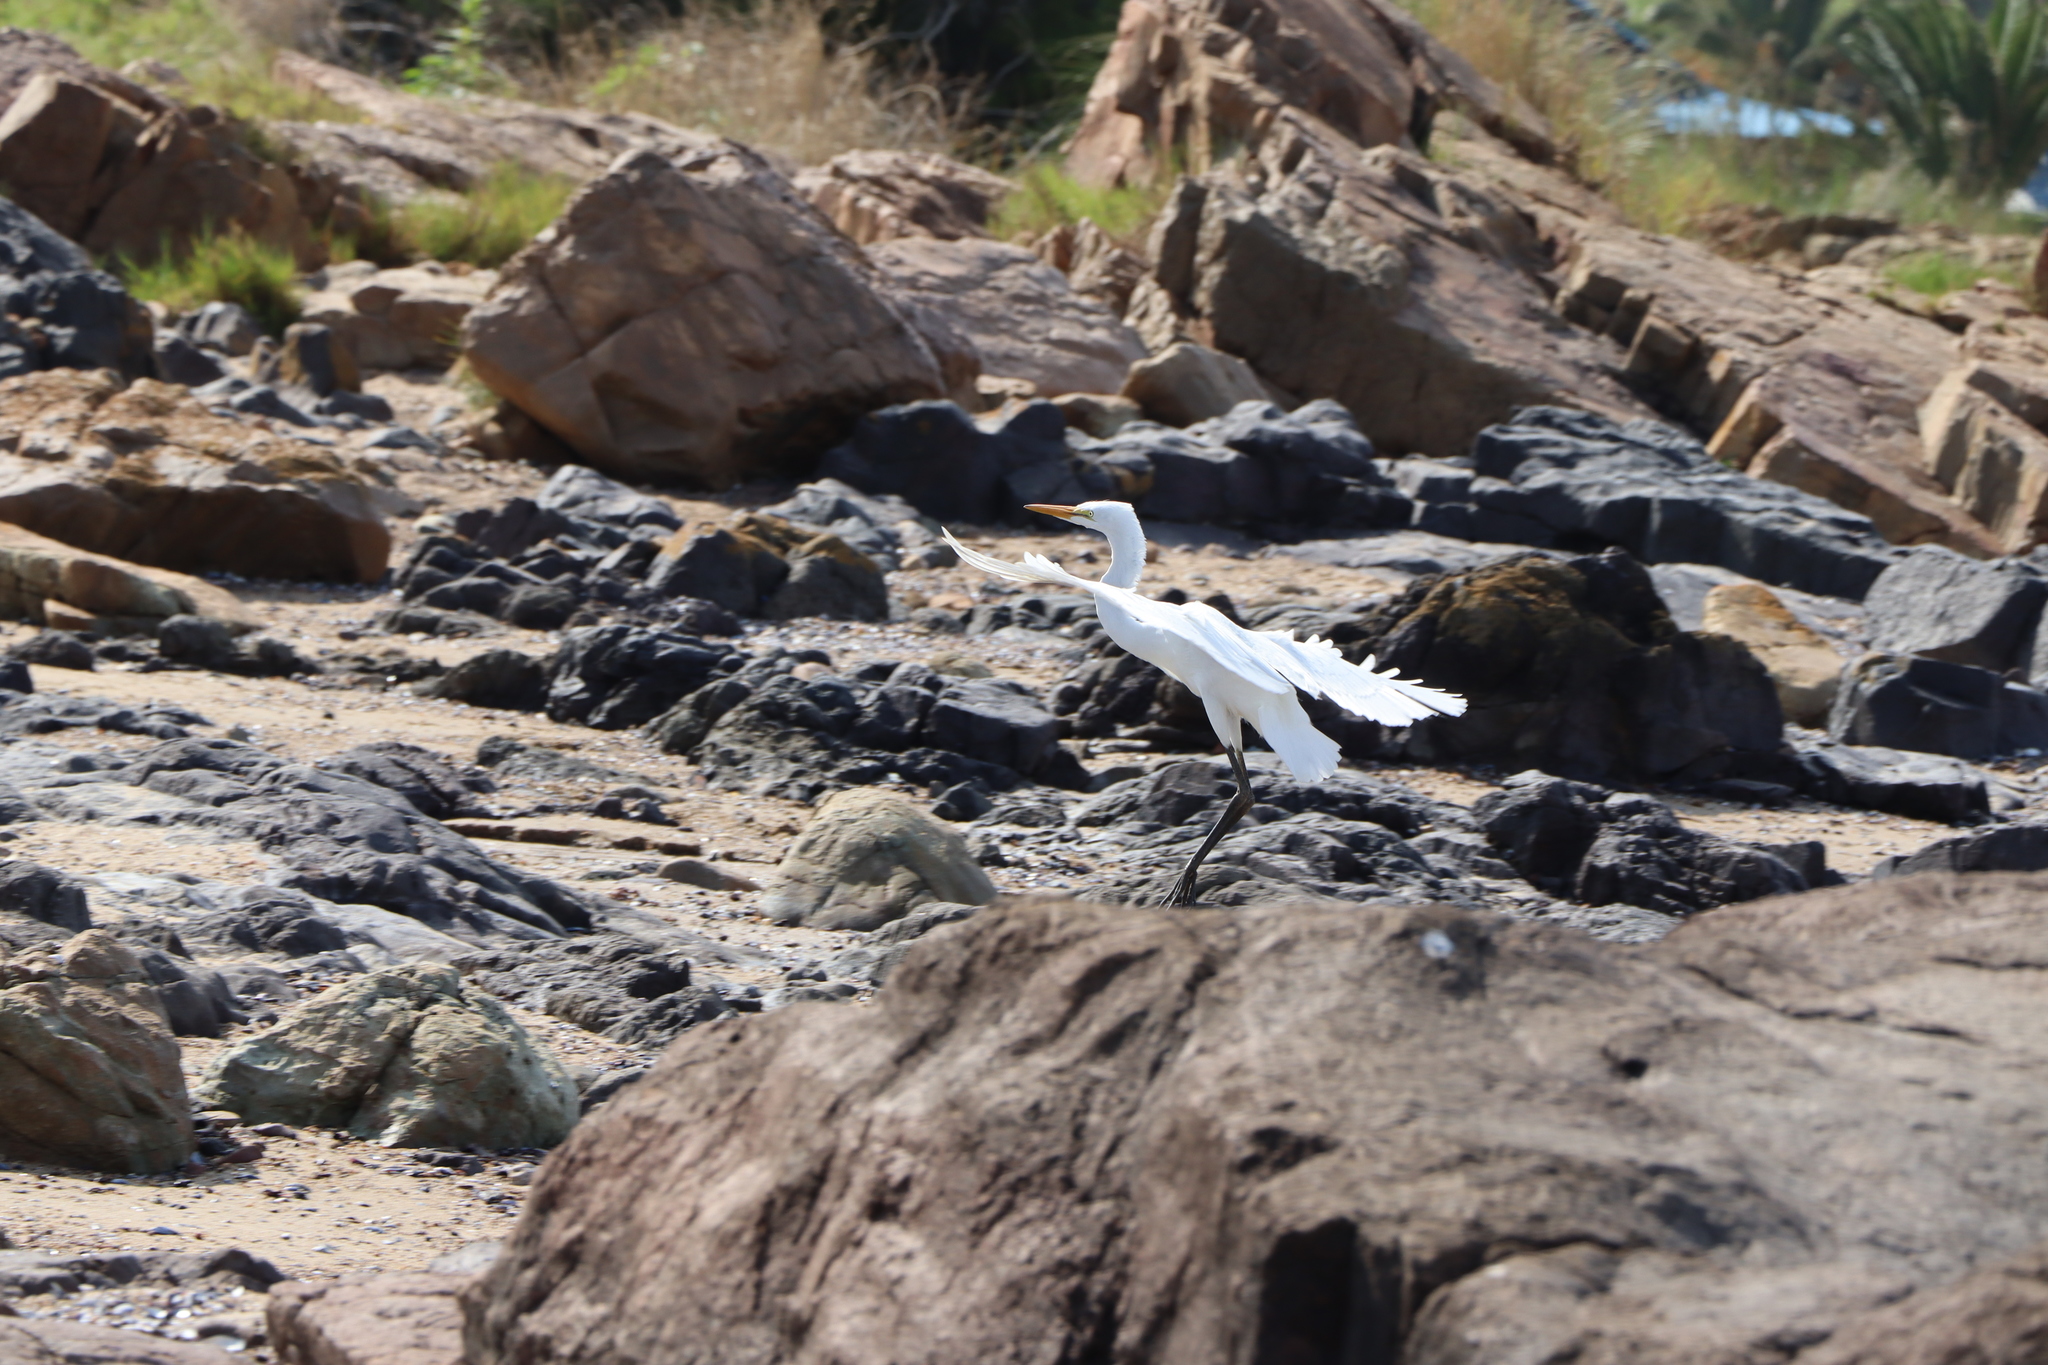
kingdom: Animalia
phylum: Chordata
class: Aves
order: Pelecaniformes
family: Ardeidae
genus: Ardea
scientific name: Ardea alba
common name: Great egret
